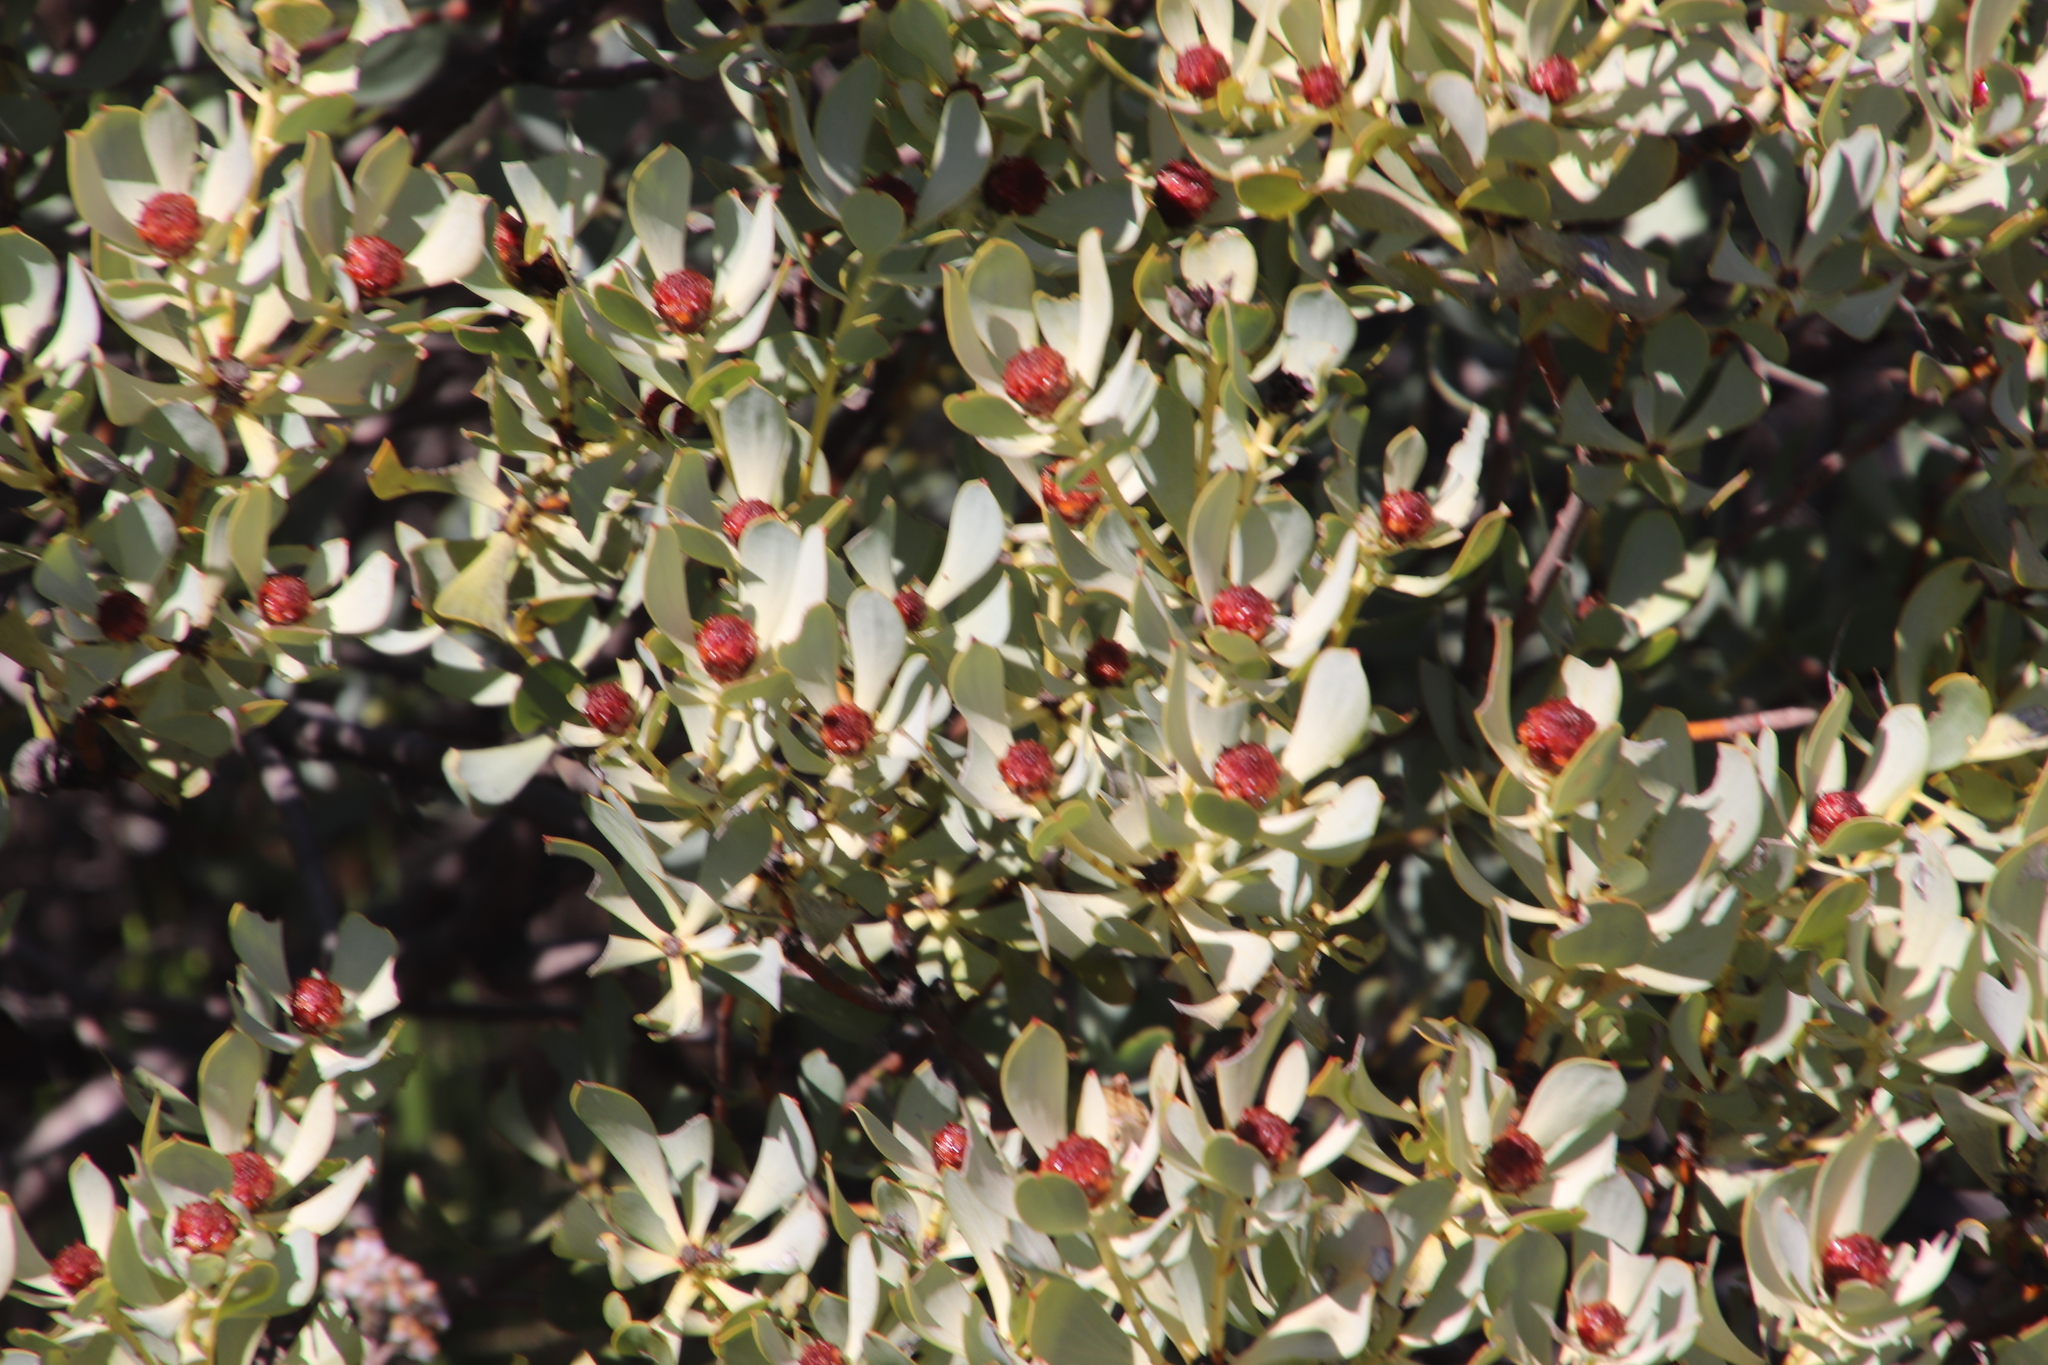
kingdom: Plantae
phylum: Tracheophyta
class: Magnoliopsida
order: Proteales
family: Proteaceae
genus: Leucadendron
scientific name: Leucadendron loranthifolium
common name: Green-flower sunbush
